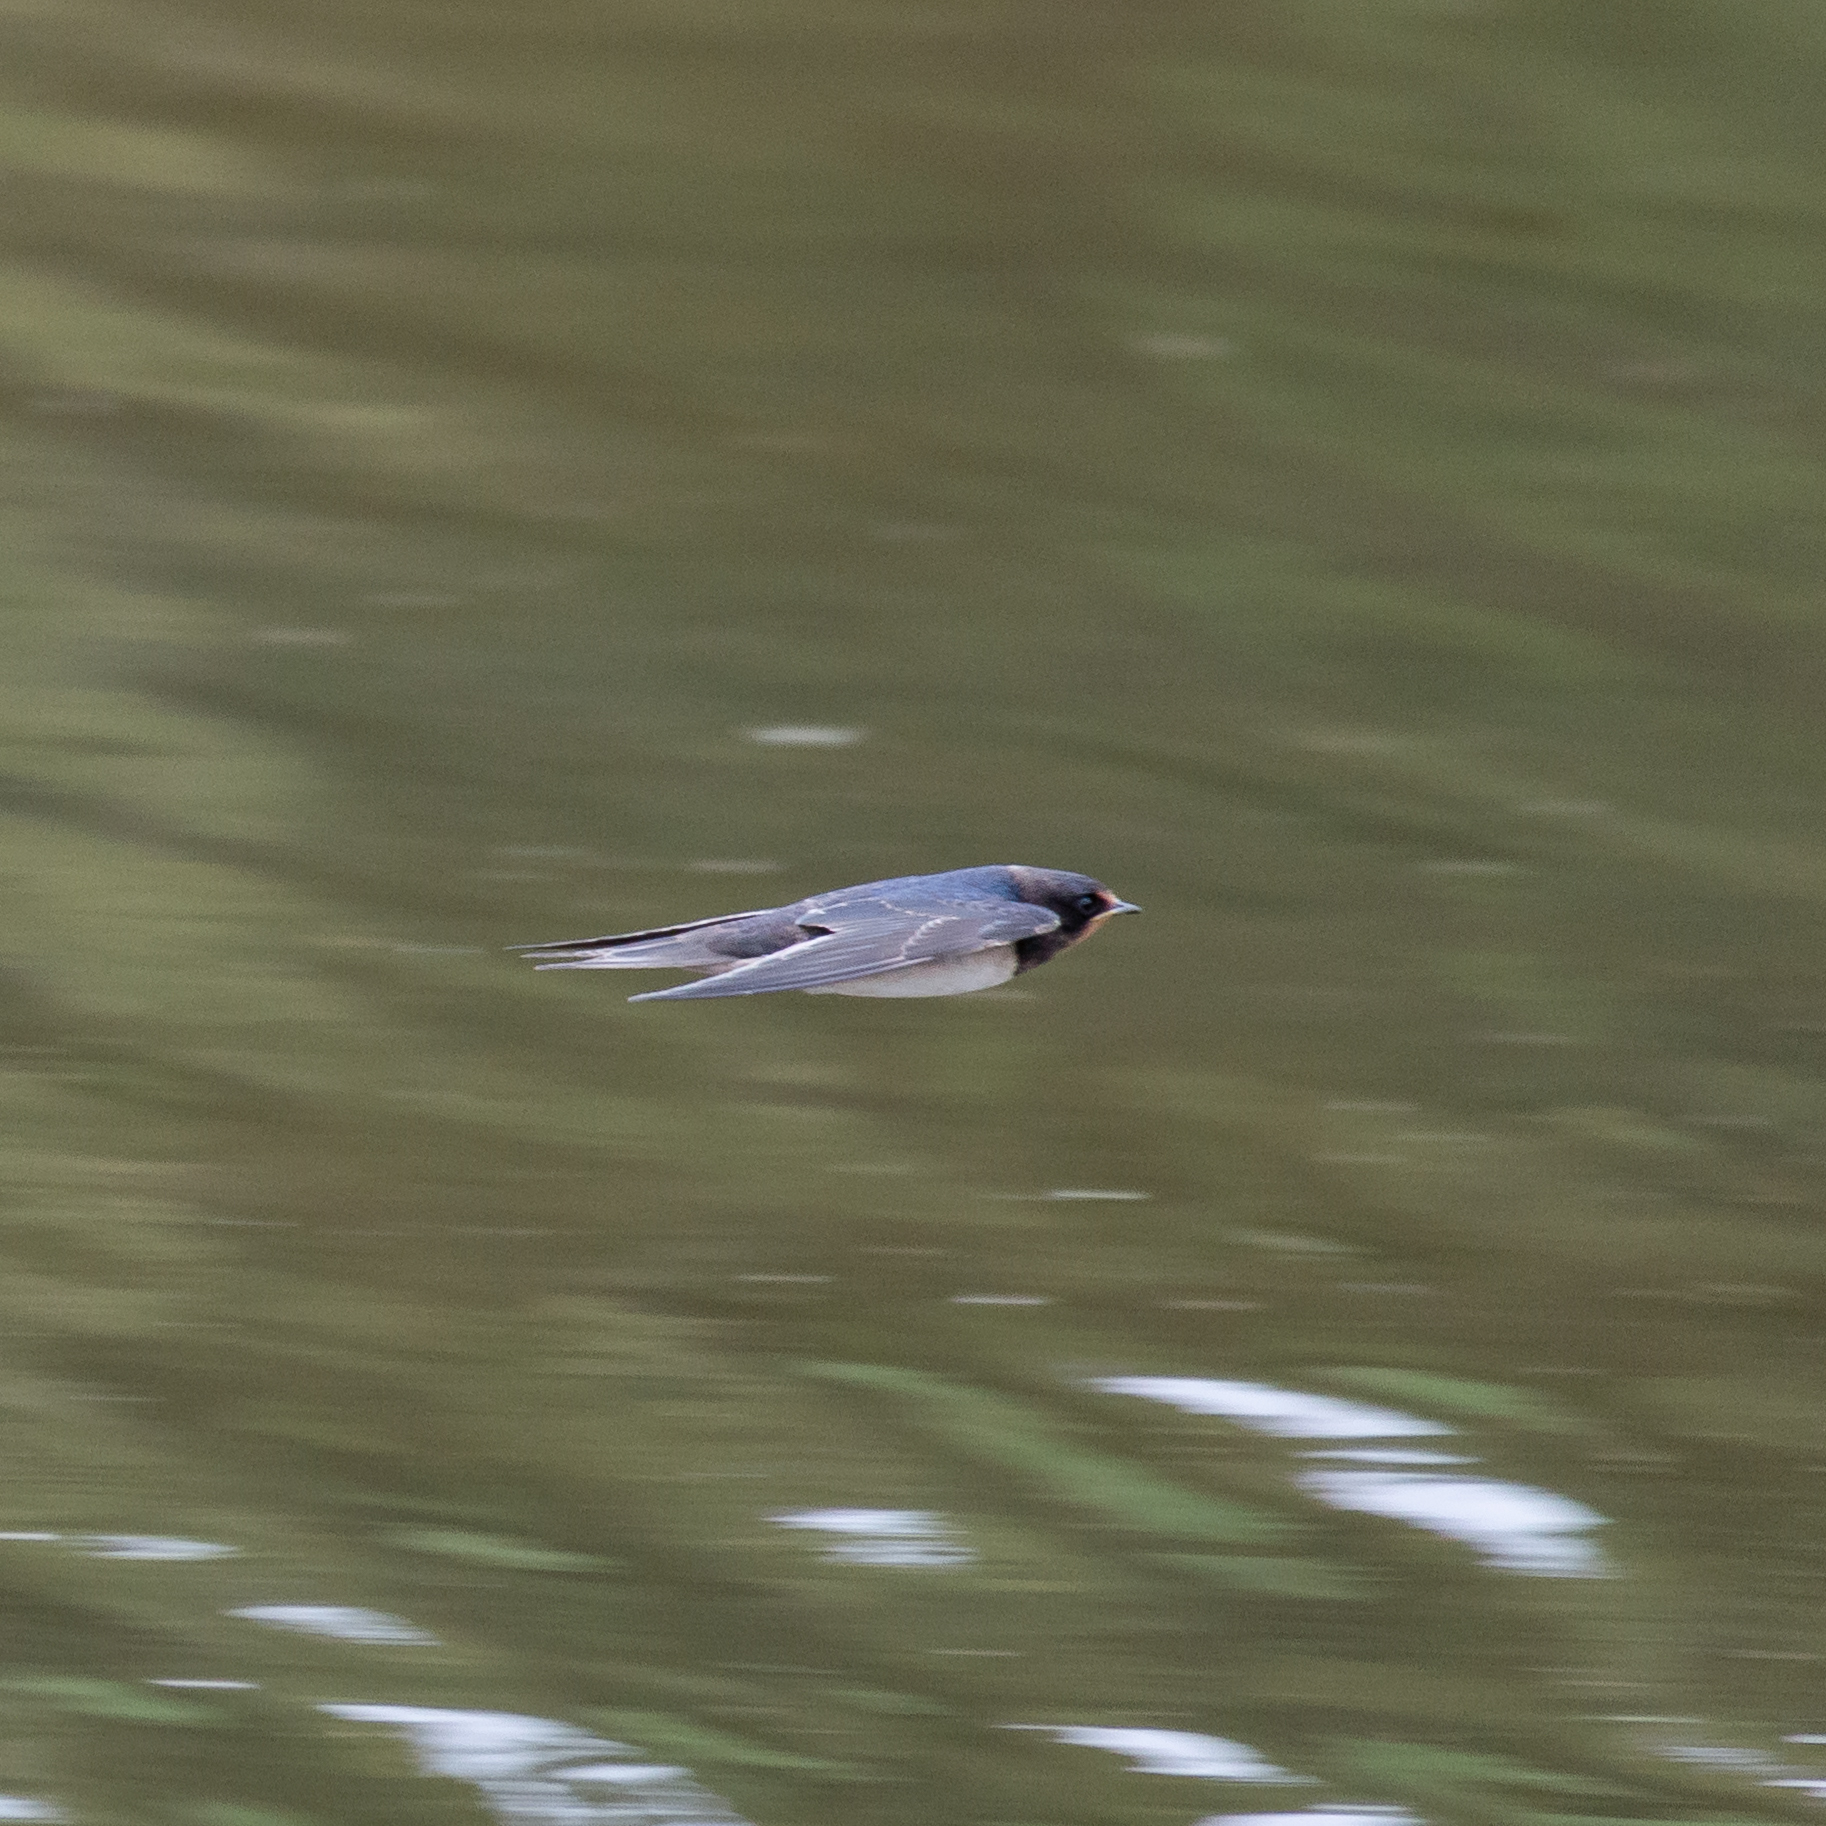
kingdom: Animalia
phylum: Chordata
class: Aves
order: Passeriformes
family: Hirundinidae
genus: Hirundo
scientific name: Hirundo rustica
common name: Barn swallow
